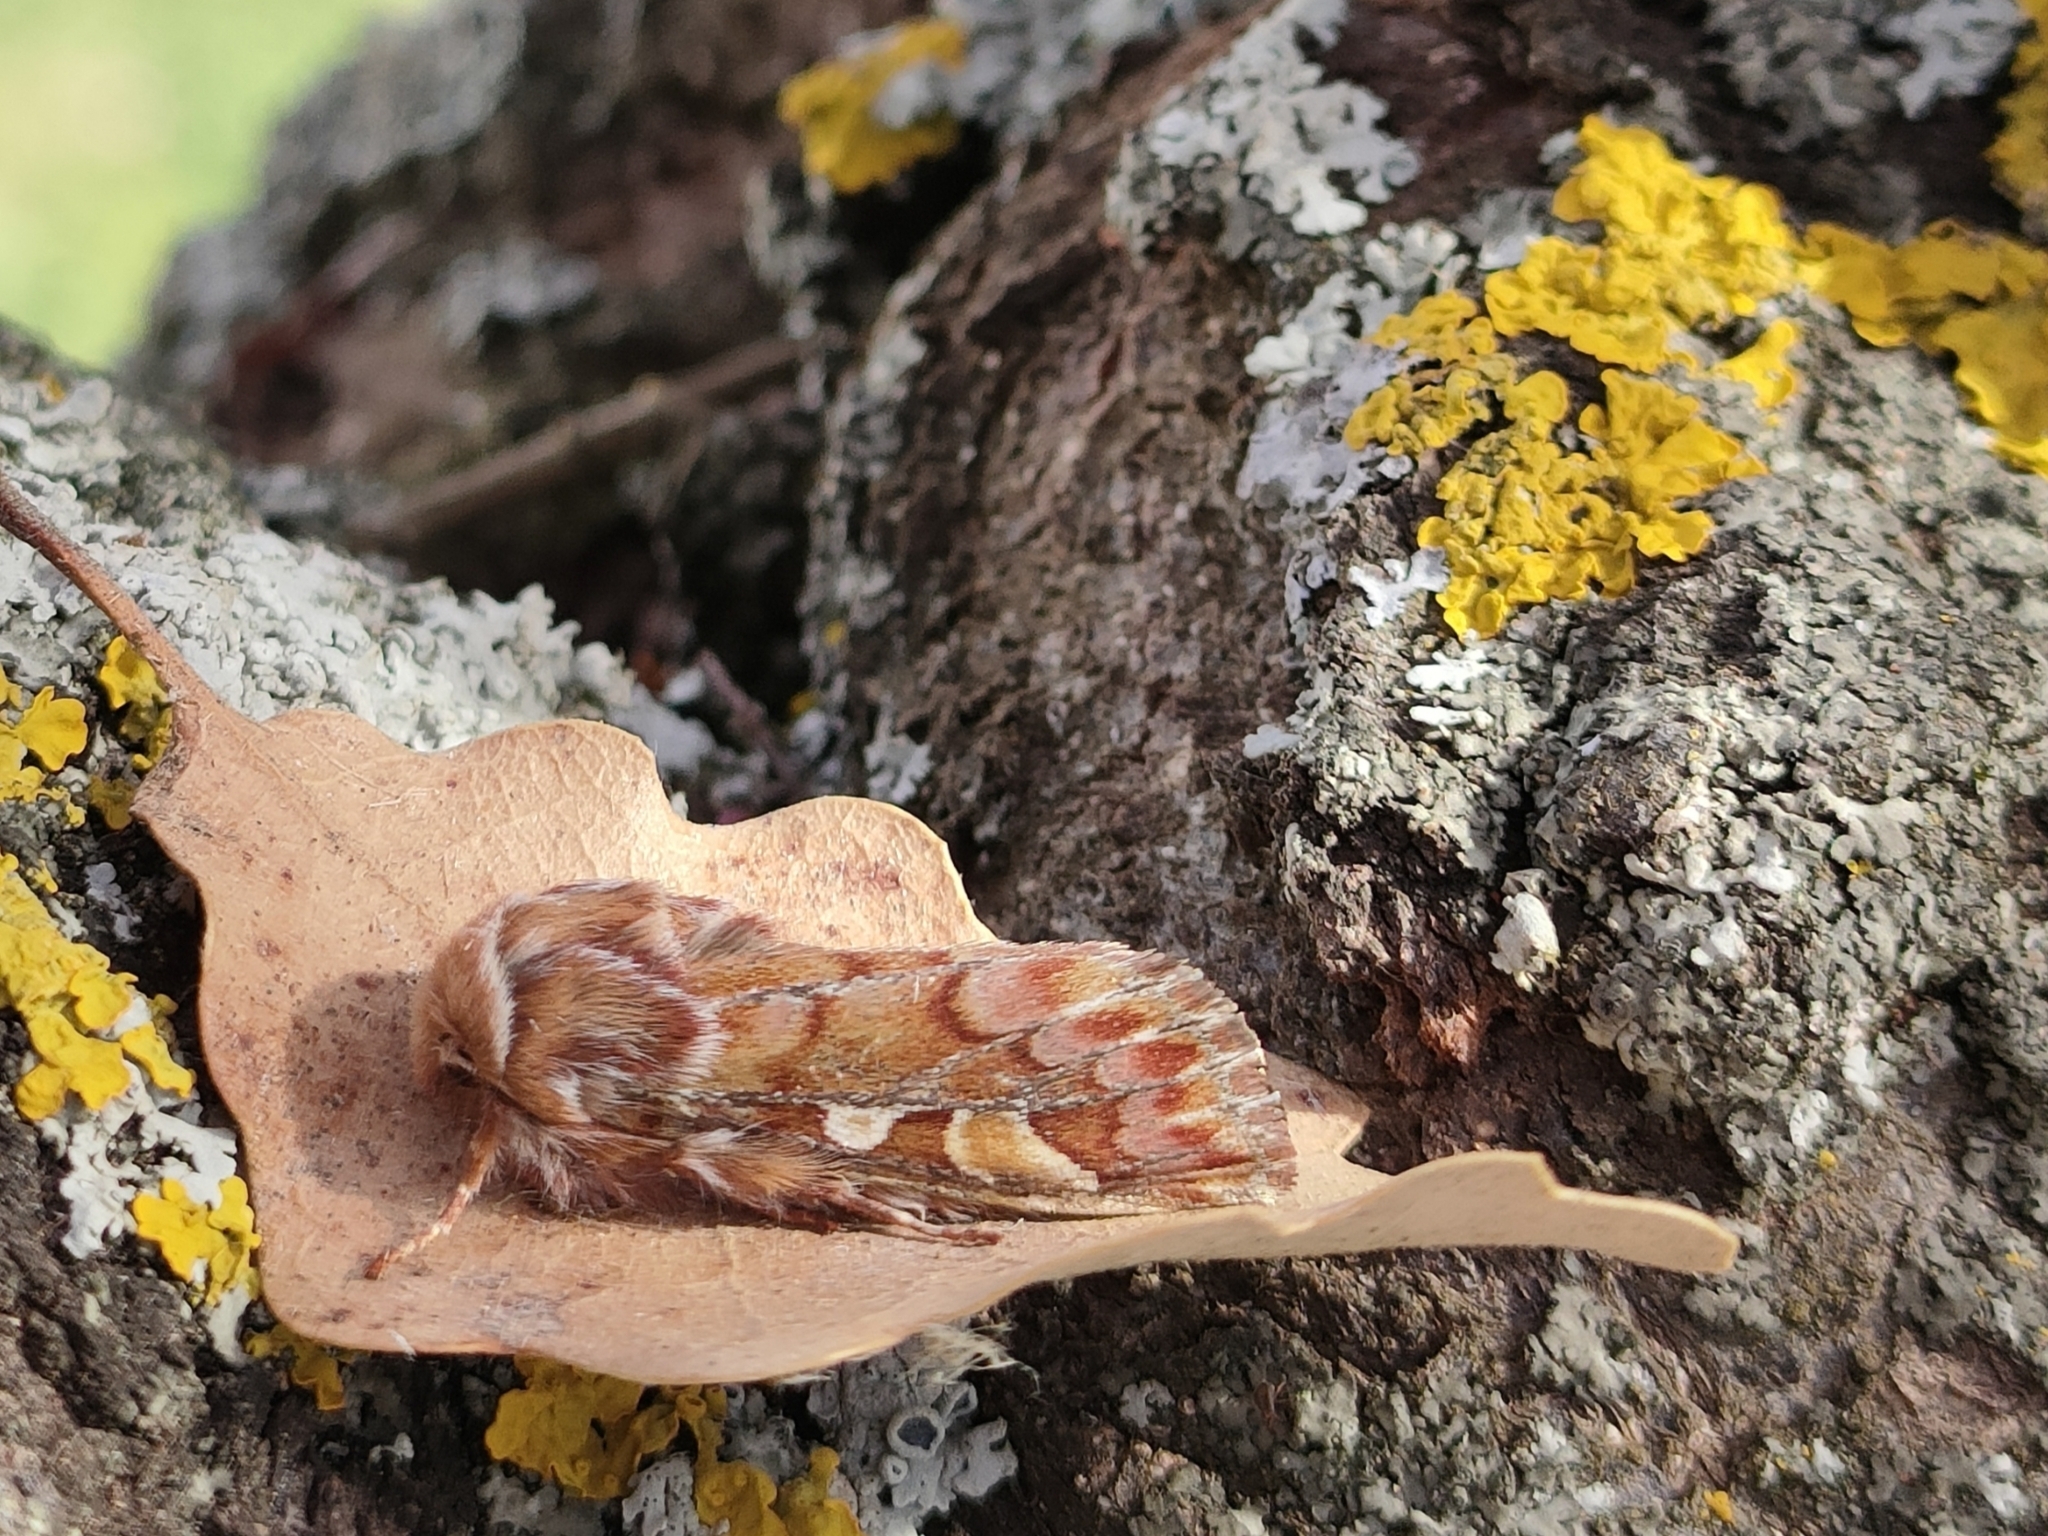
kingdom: Animalia
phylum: Arthropoda
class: Insecta
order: Lepidoptera
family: Noctuidae
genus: Panolis
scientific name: Panolis flammea
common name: Pine beauty
